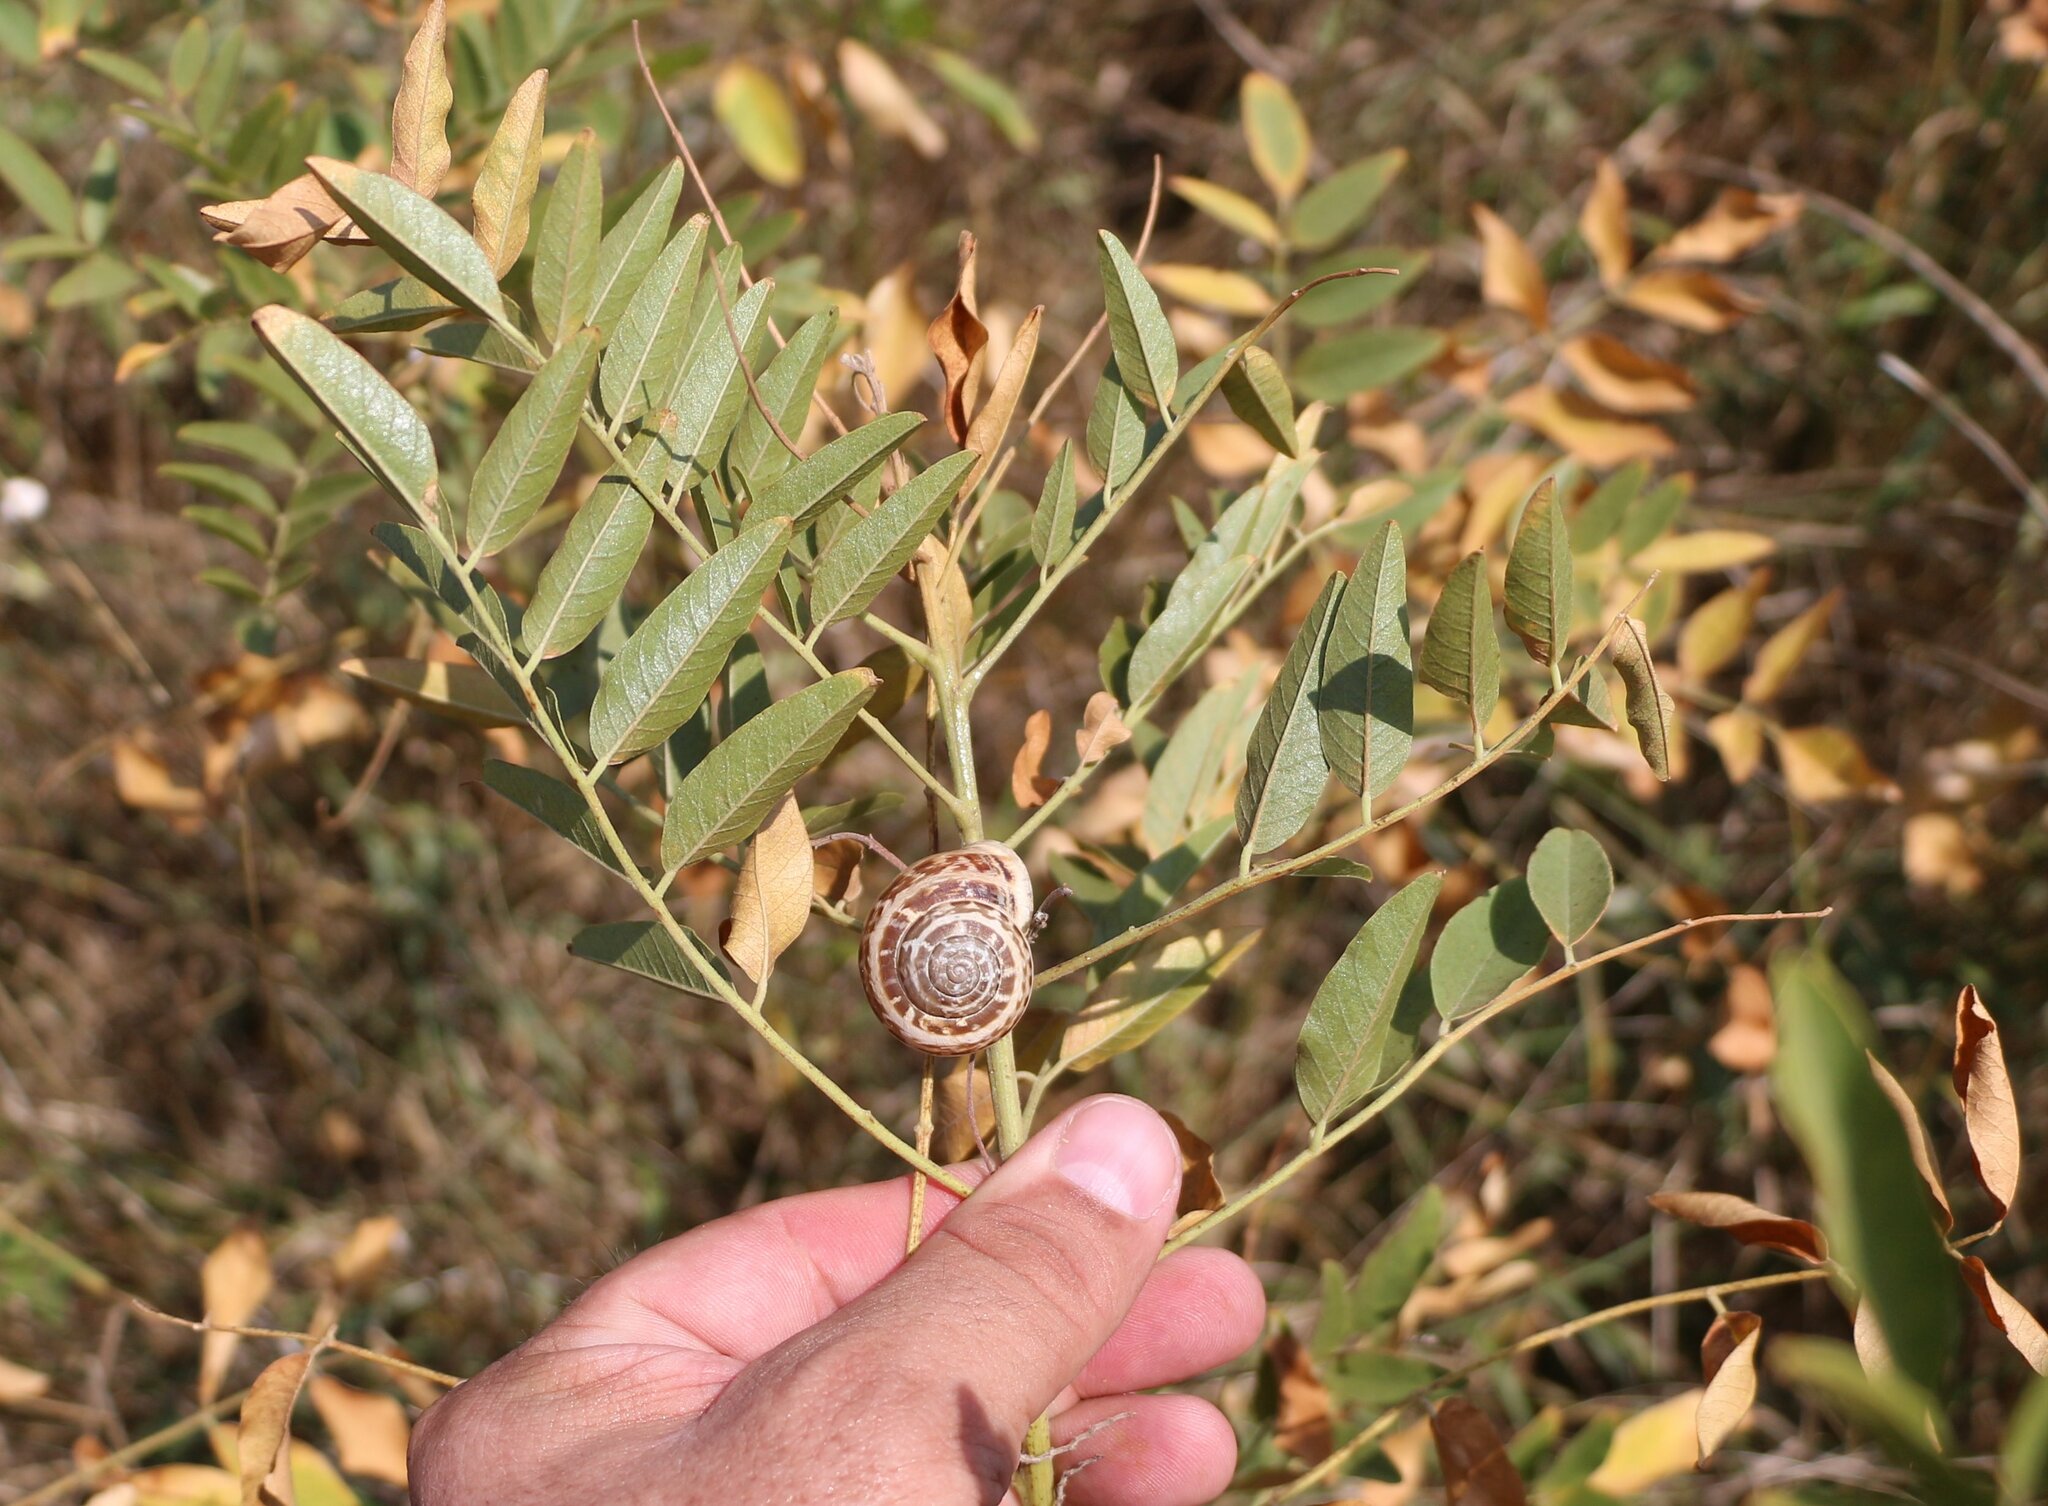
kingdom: Plantae
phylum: Tracheophyta
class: Magnoliopsida
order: Fabales
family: Fabaceae
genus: Glycyrrhiza
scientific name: Glycyrrhiza glabra
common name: Liquorice
